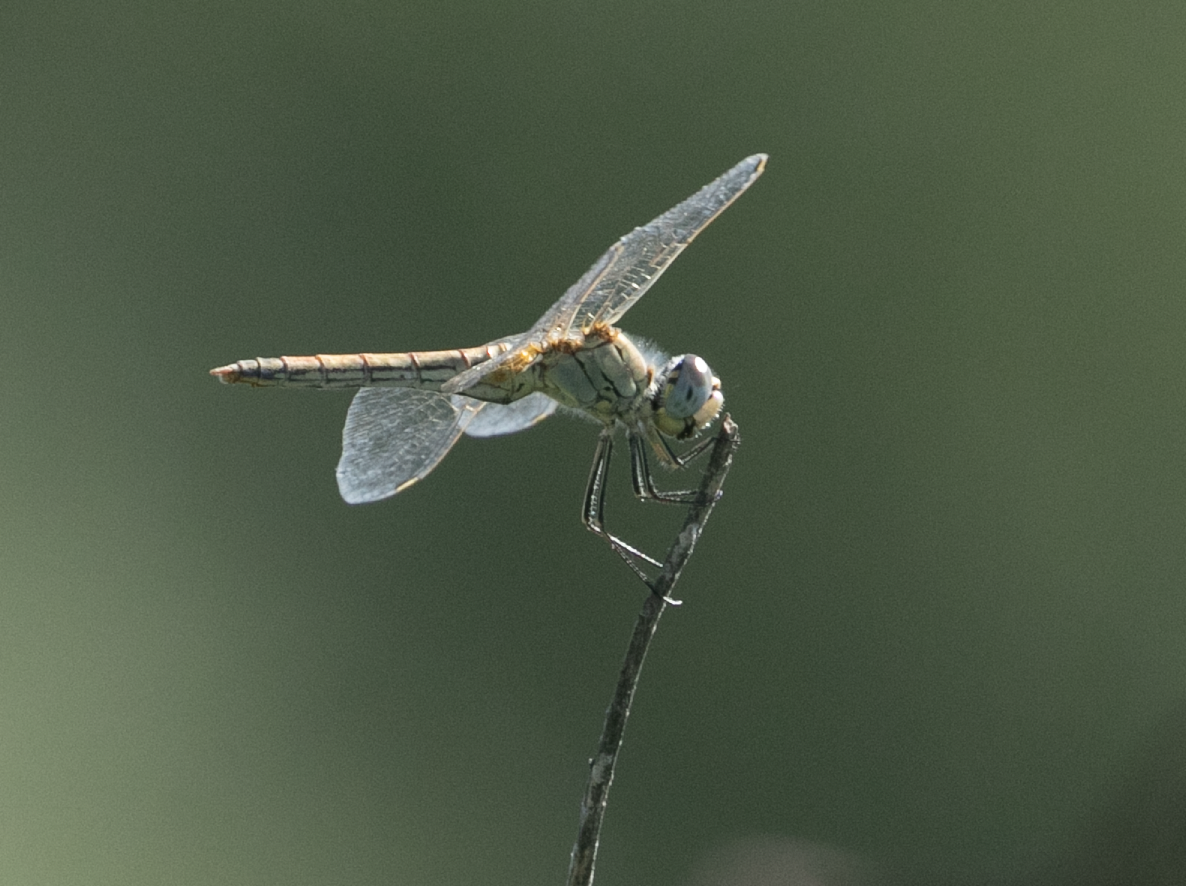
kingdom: Animalia
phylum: Arthropoda
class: Insecta
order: Odonata
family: Libellulidae
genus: Sympetrum
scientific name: Sympetrum fonscolombii
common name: Red-veined darter
